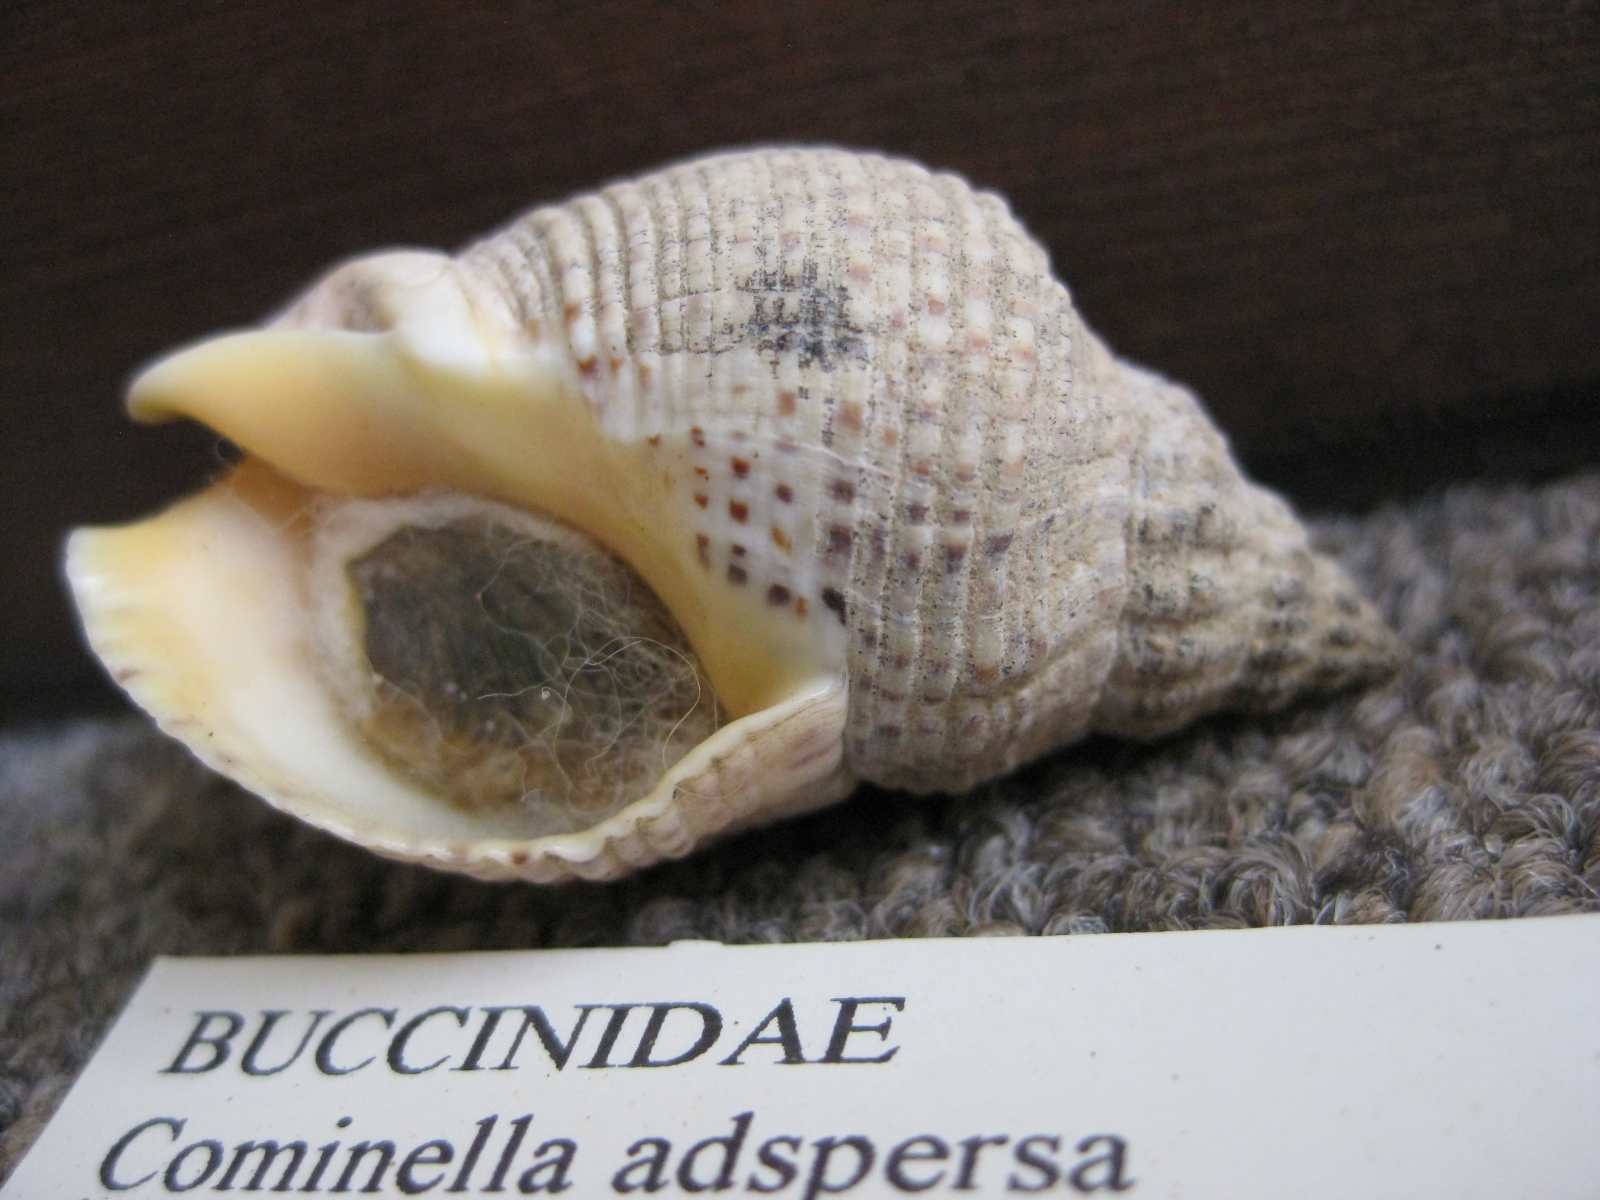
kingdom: Animalia
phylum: Mollusca
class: Gastropoda
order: Neogastropoda
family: Cominellidae
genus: Cominella
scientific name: Cominella adspersa
